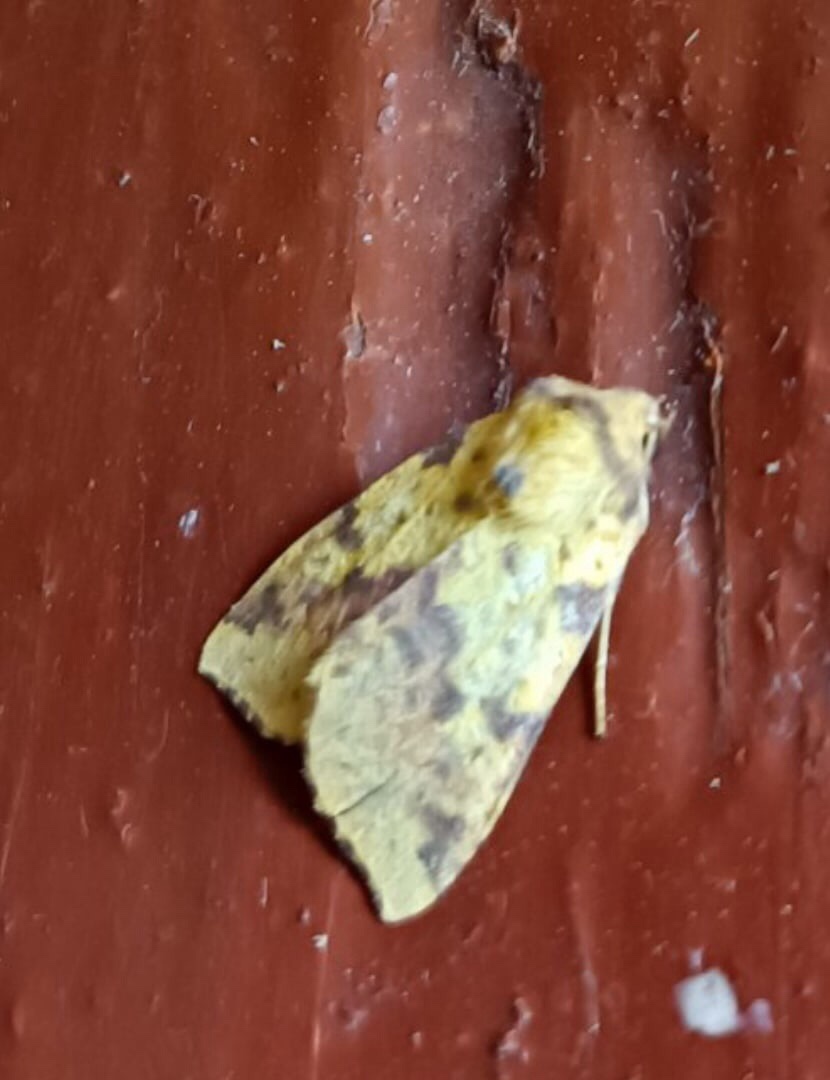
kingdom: Animalia
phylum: Arthropoda
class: Insecta
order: Lepidoptera
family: Noctuidae
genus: Xanthia
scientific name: Xanthia togata
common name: Pink-barred sallow
